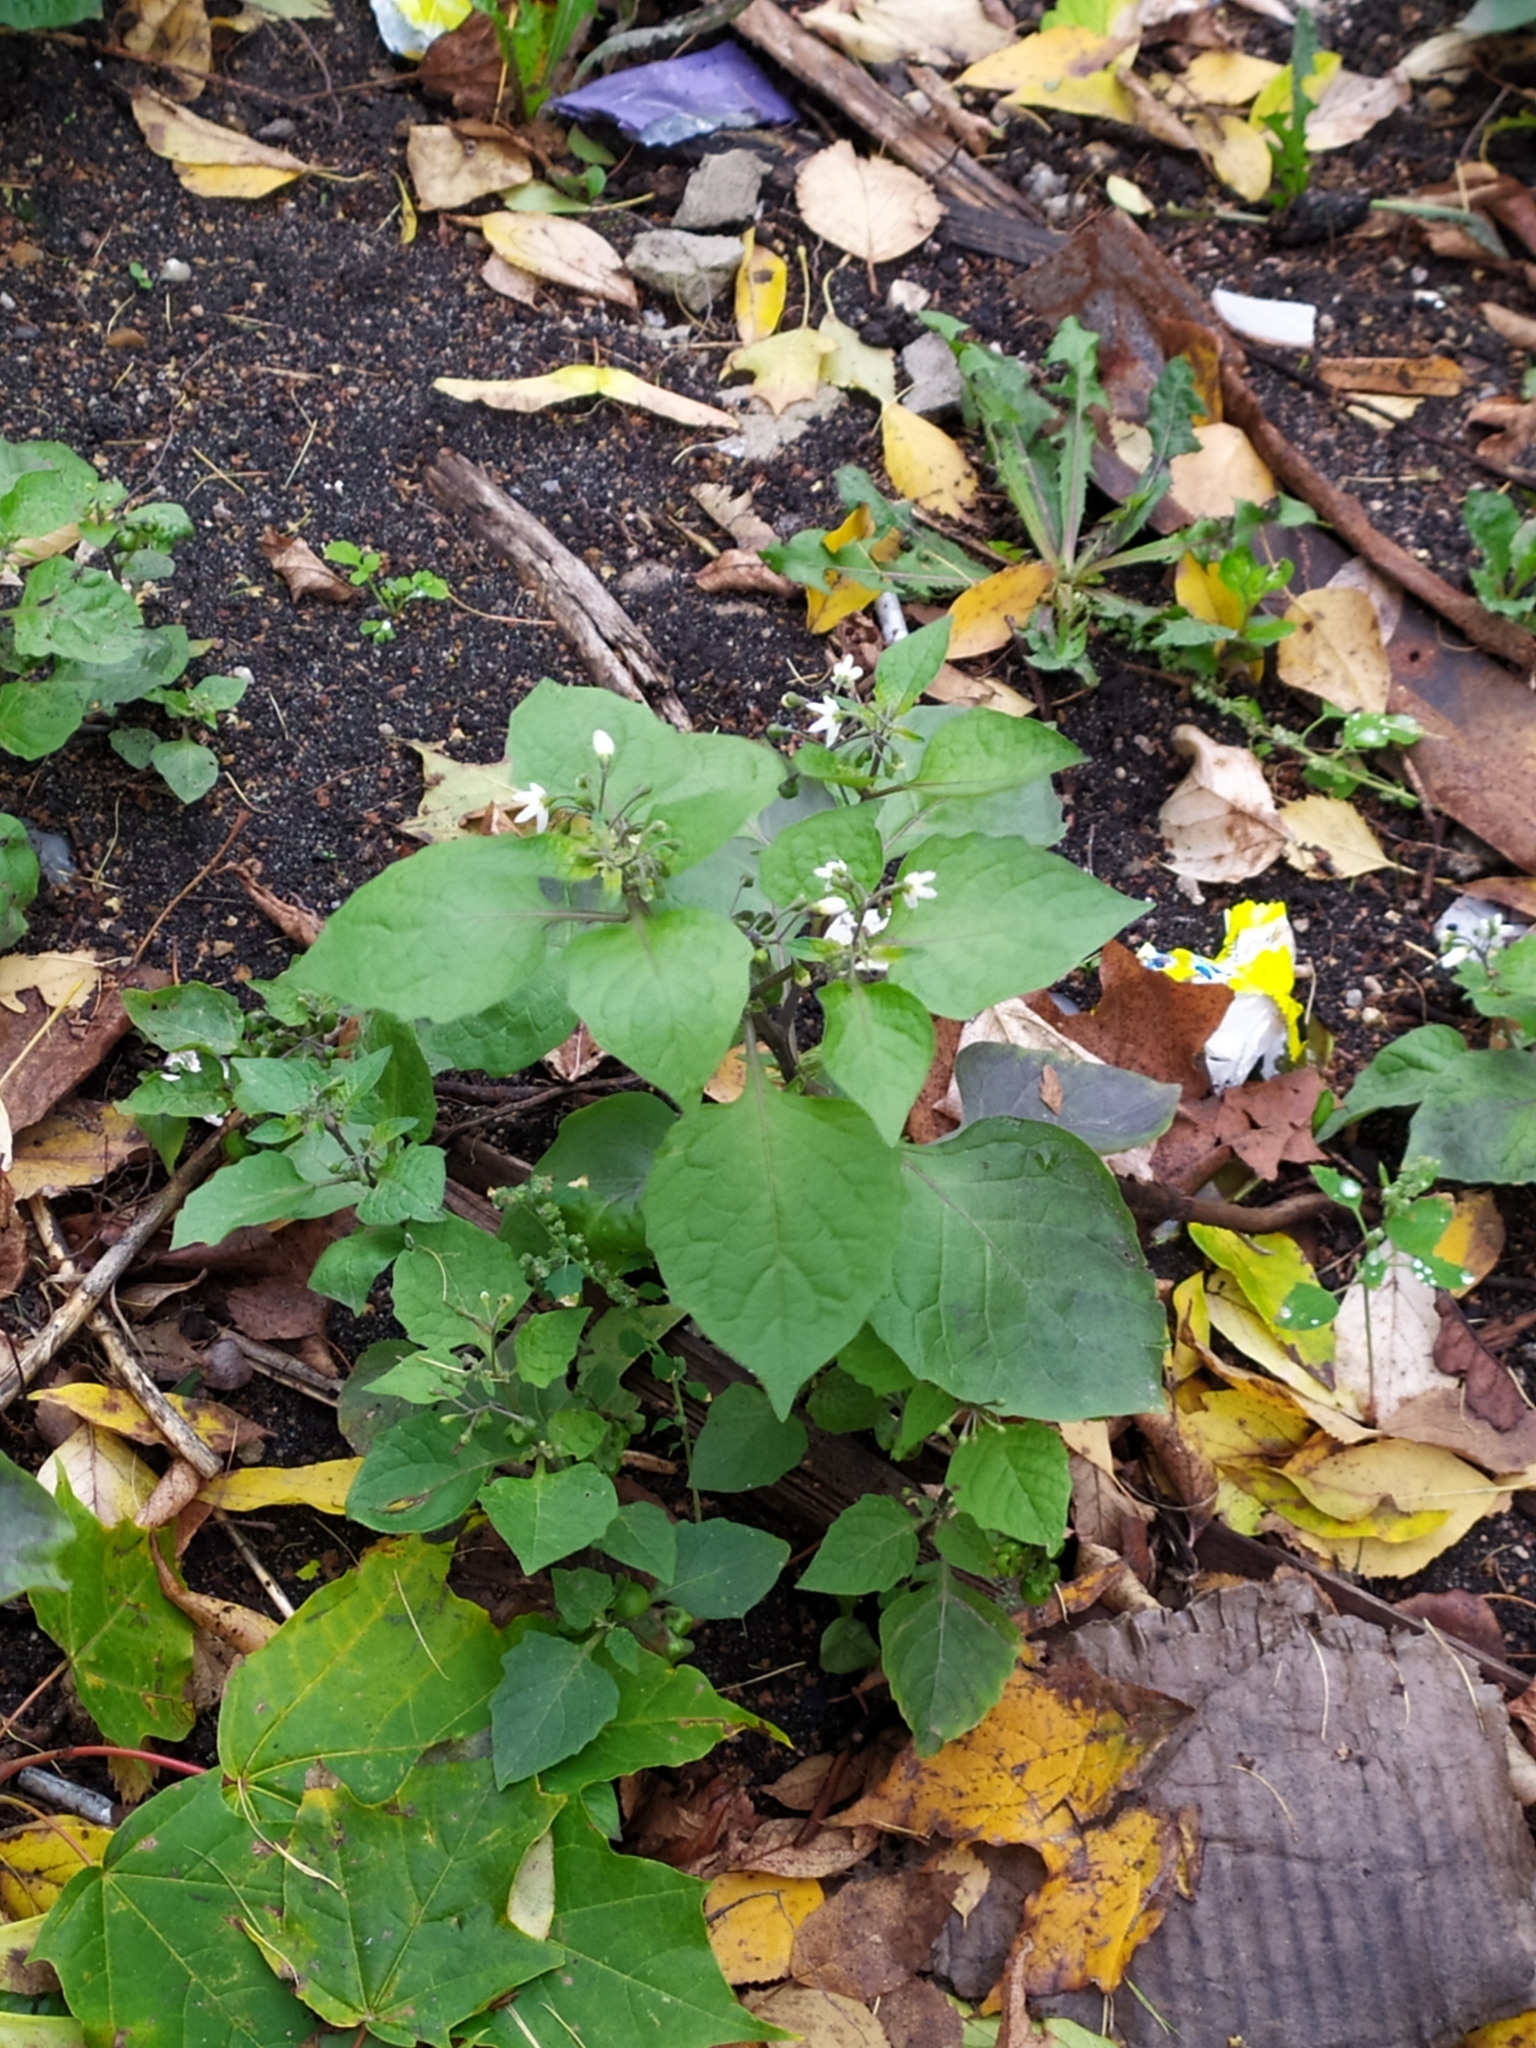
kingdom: Plantae
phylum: Tracheophyta
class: Magnoliopsida
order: Solanales
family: Solanaceae
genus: Solanum
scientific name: Solanum nigrum
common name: Black nightshade
